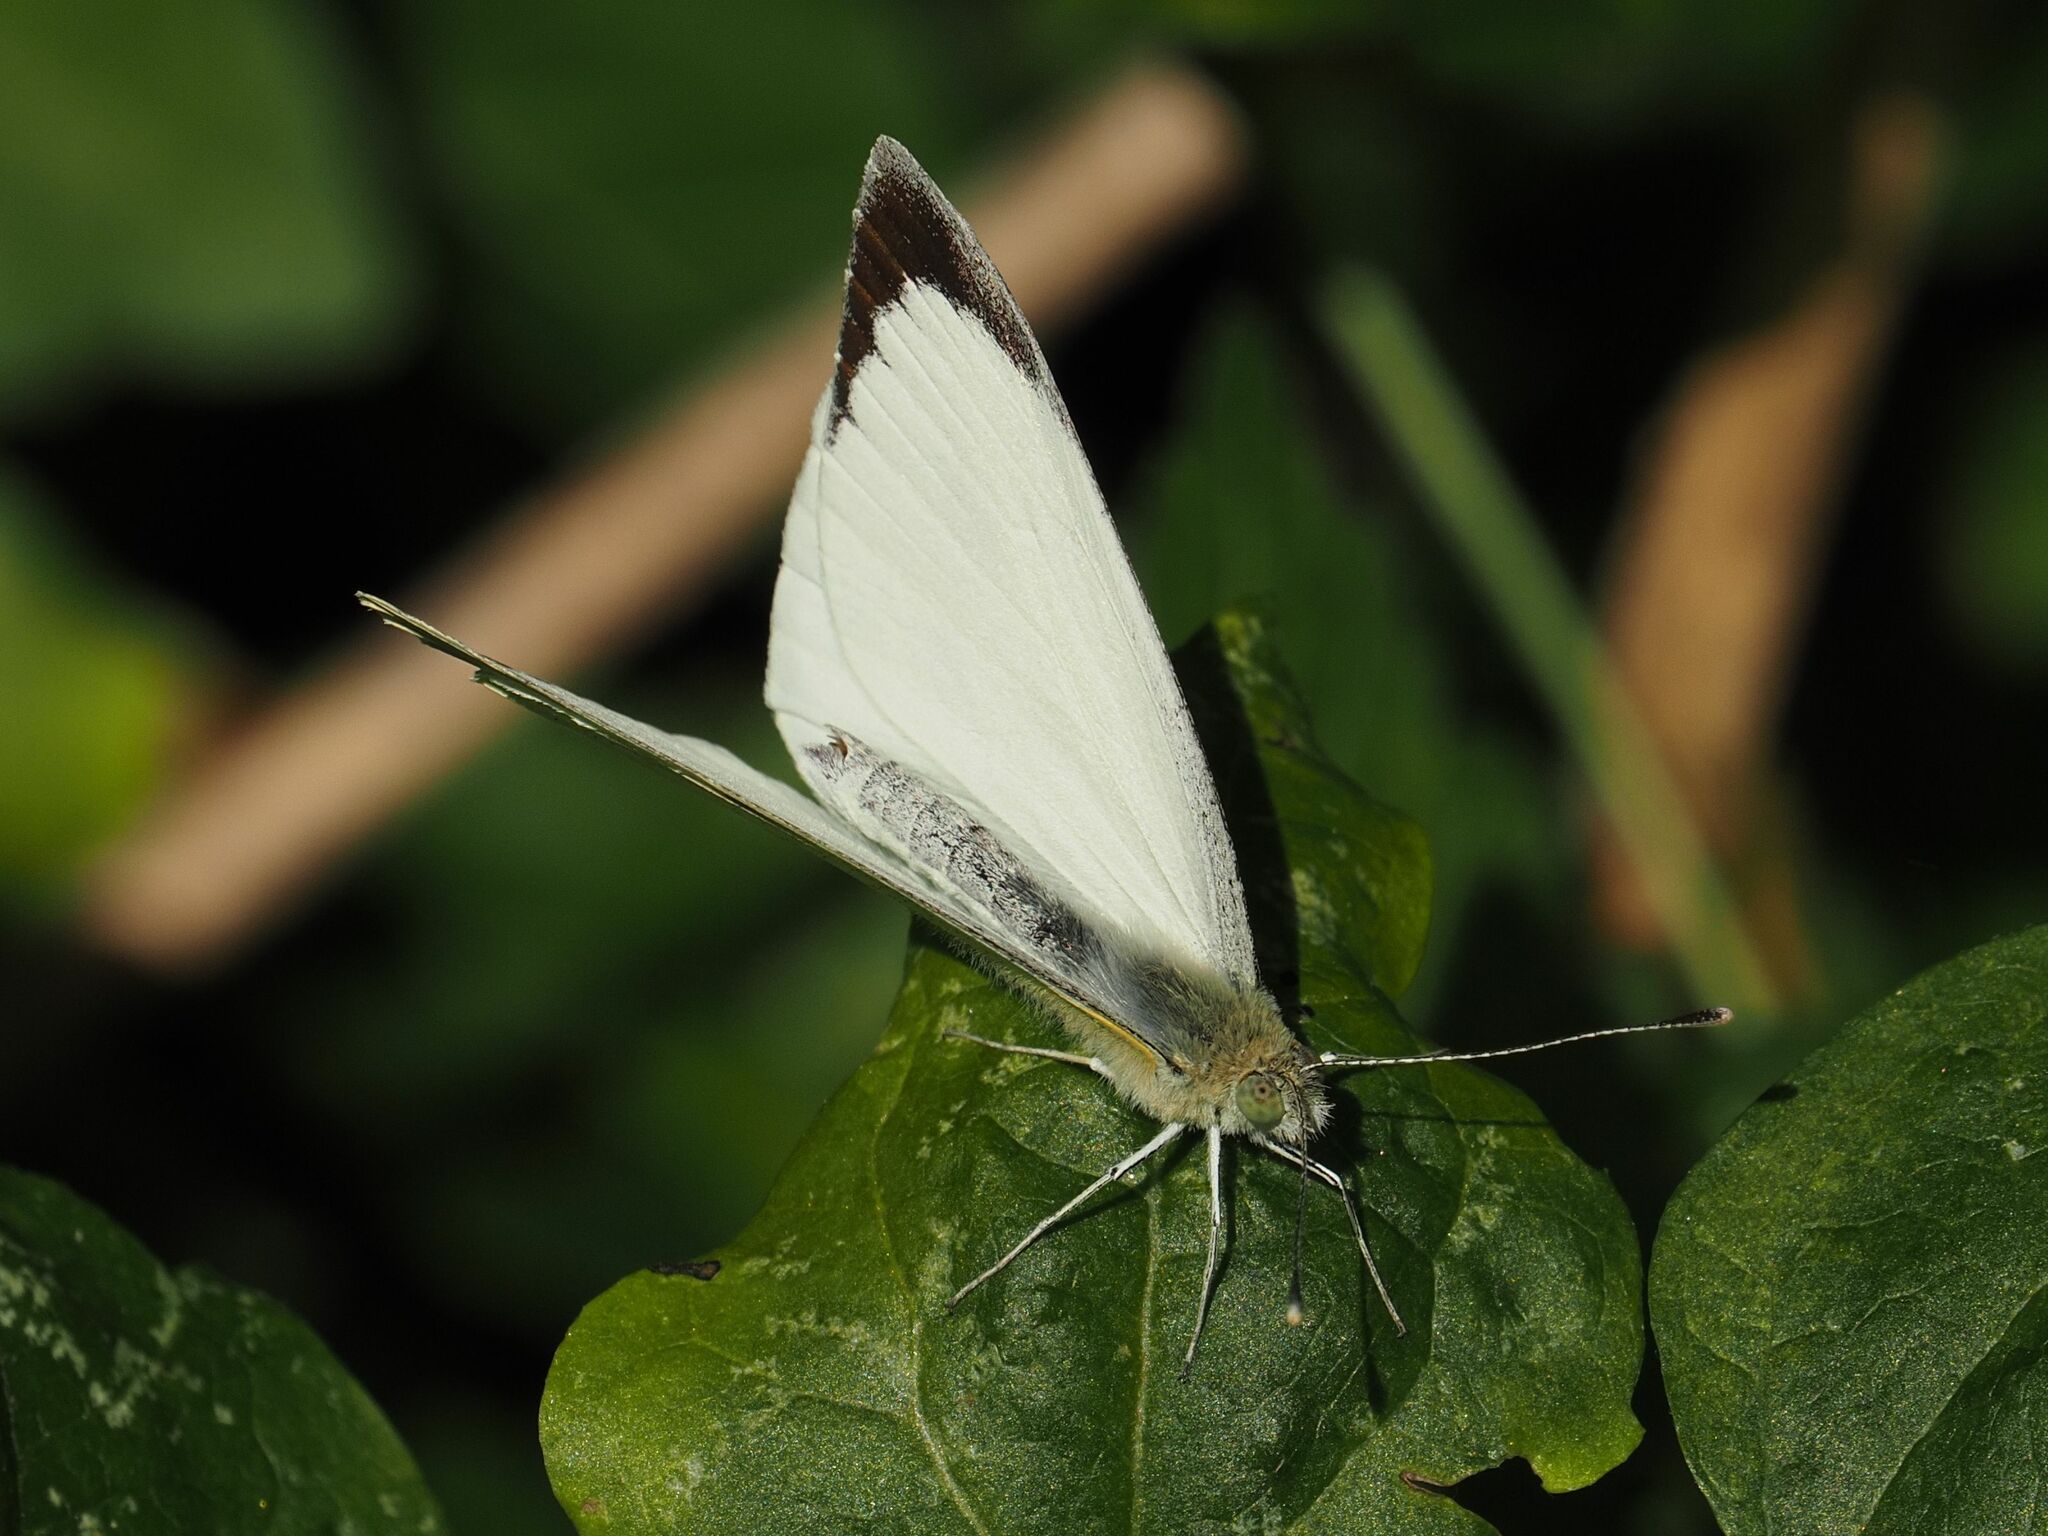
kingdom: Animalia
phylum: Arthropoda
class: Insecta
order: Lepidoptera
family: Pieridae
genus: Pieris
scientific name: Pieris brassicae
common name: Large white
